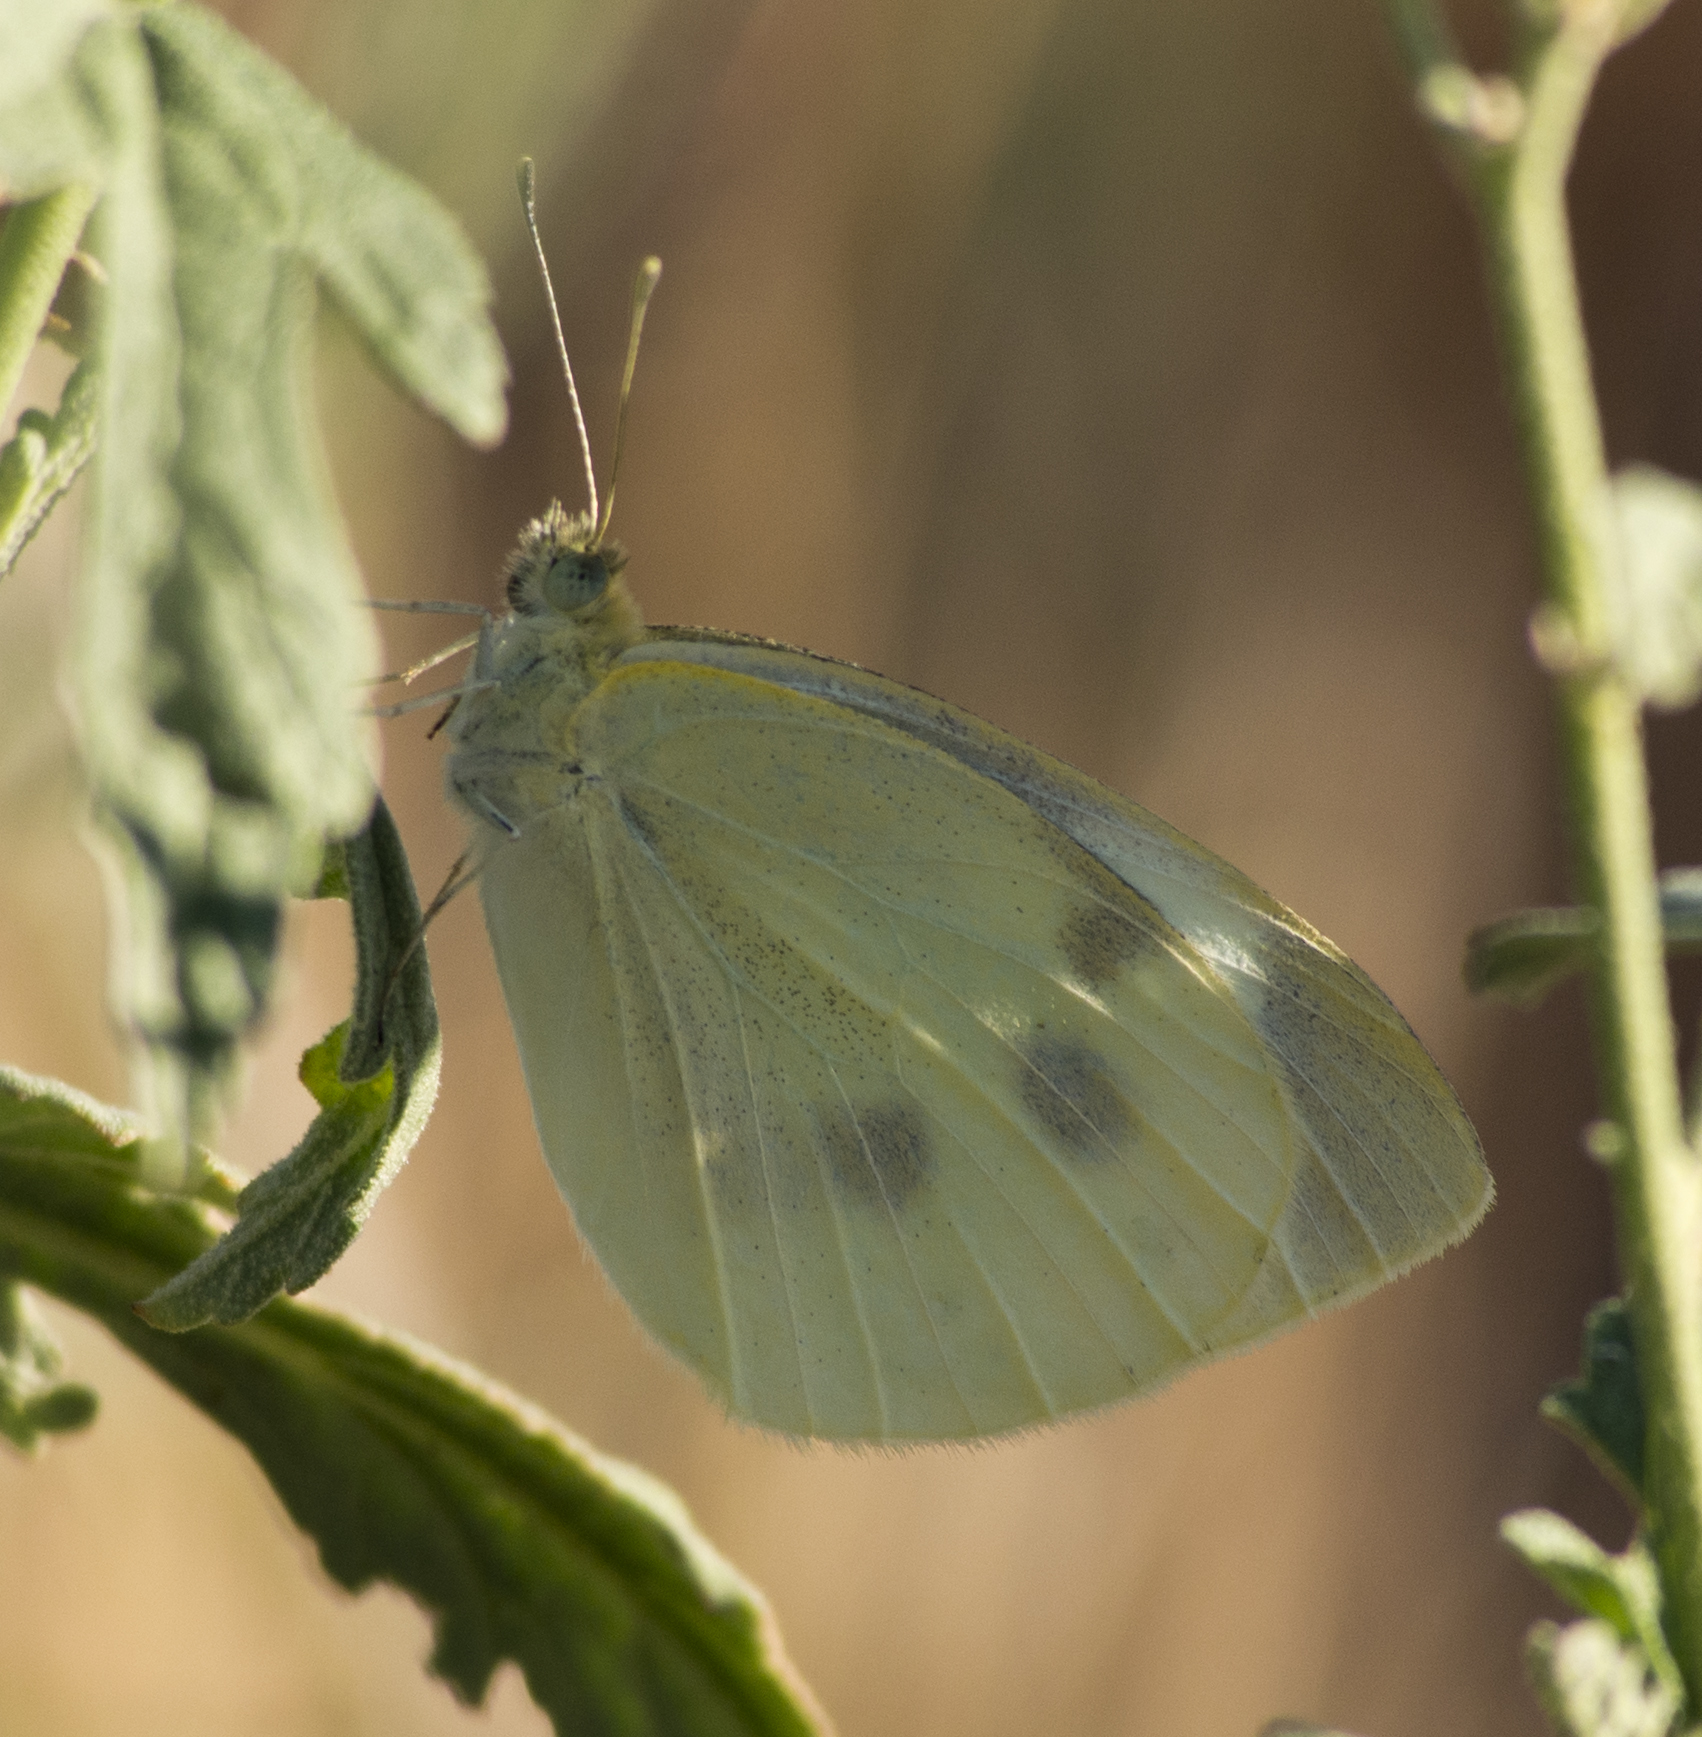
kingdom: Animalia
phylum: Arthropoda
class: Insecta
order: Lepidoptera
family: Pieridae
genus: Pieris
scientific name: Pieris rapae
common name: Small white
